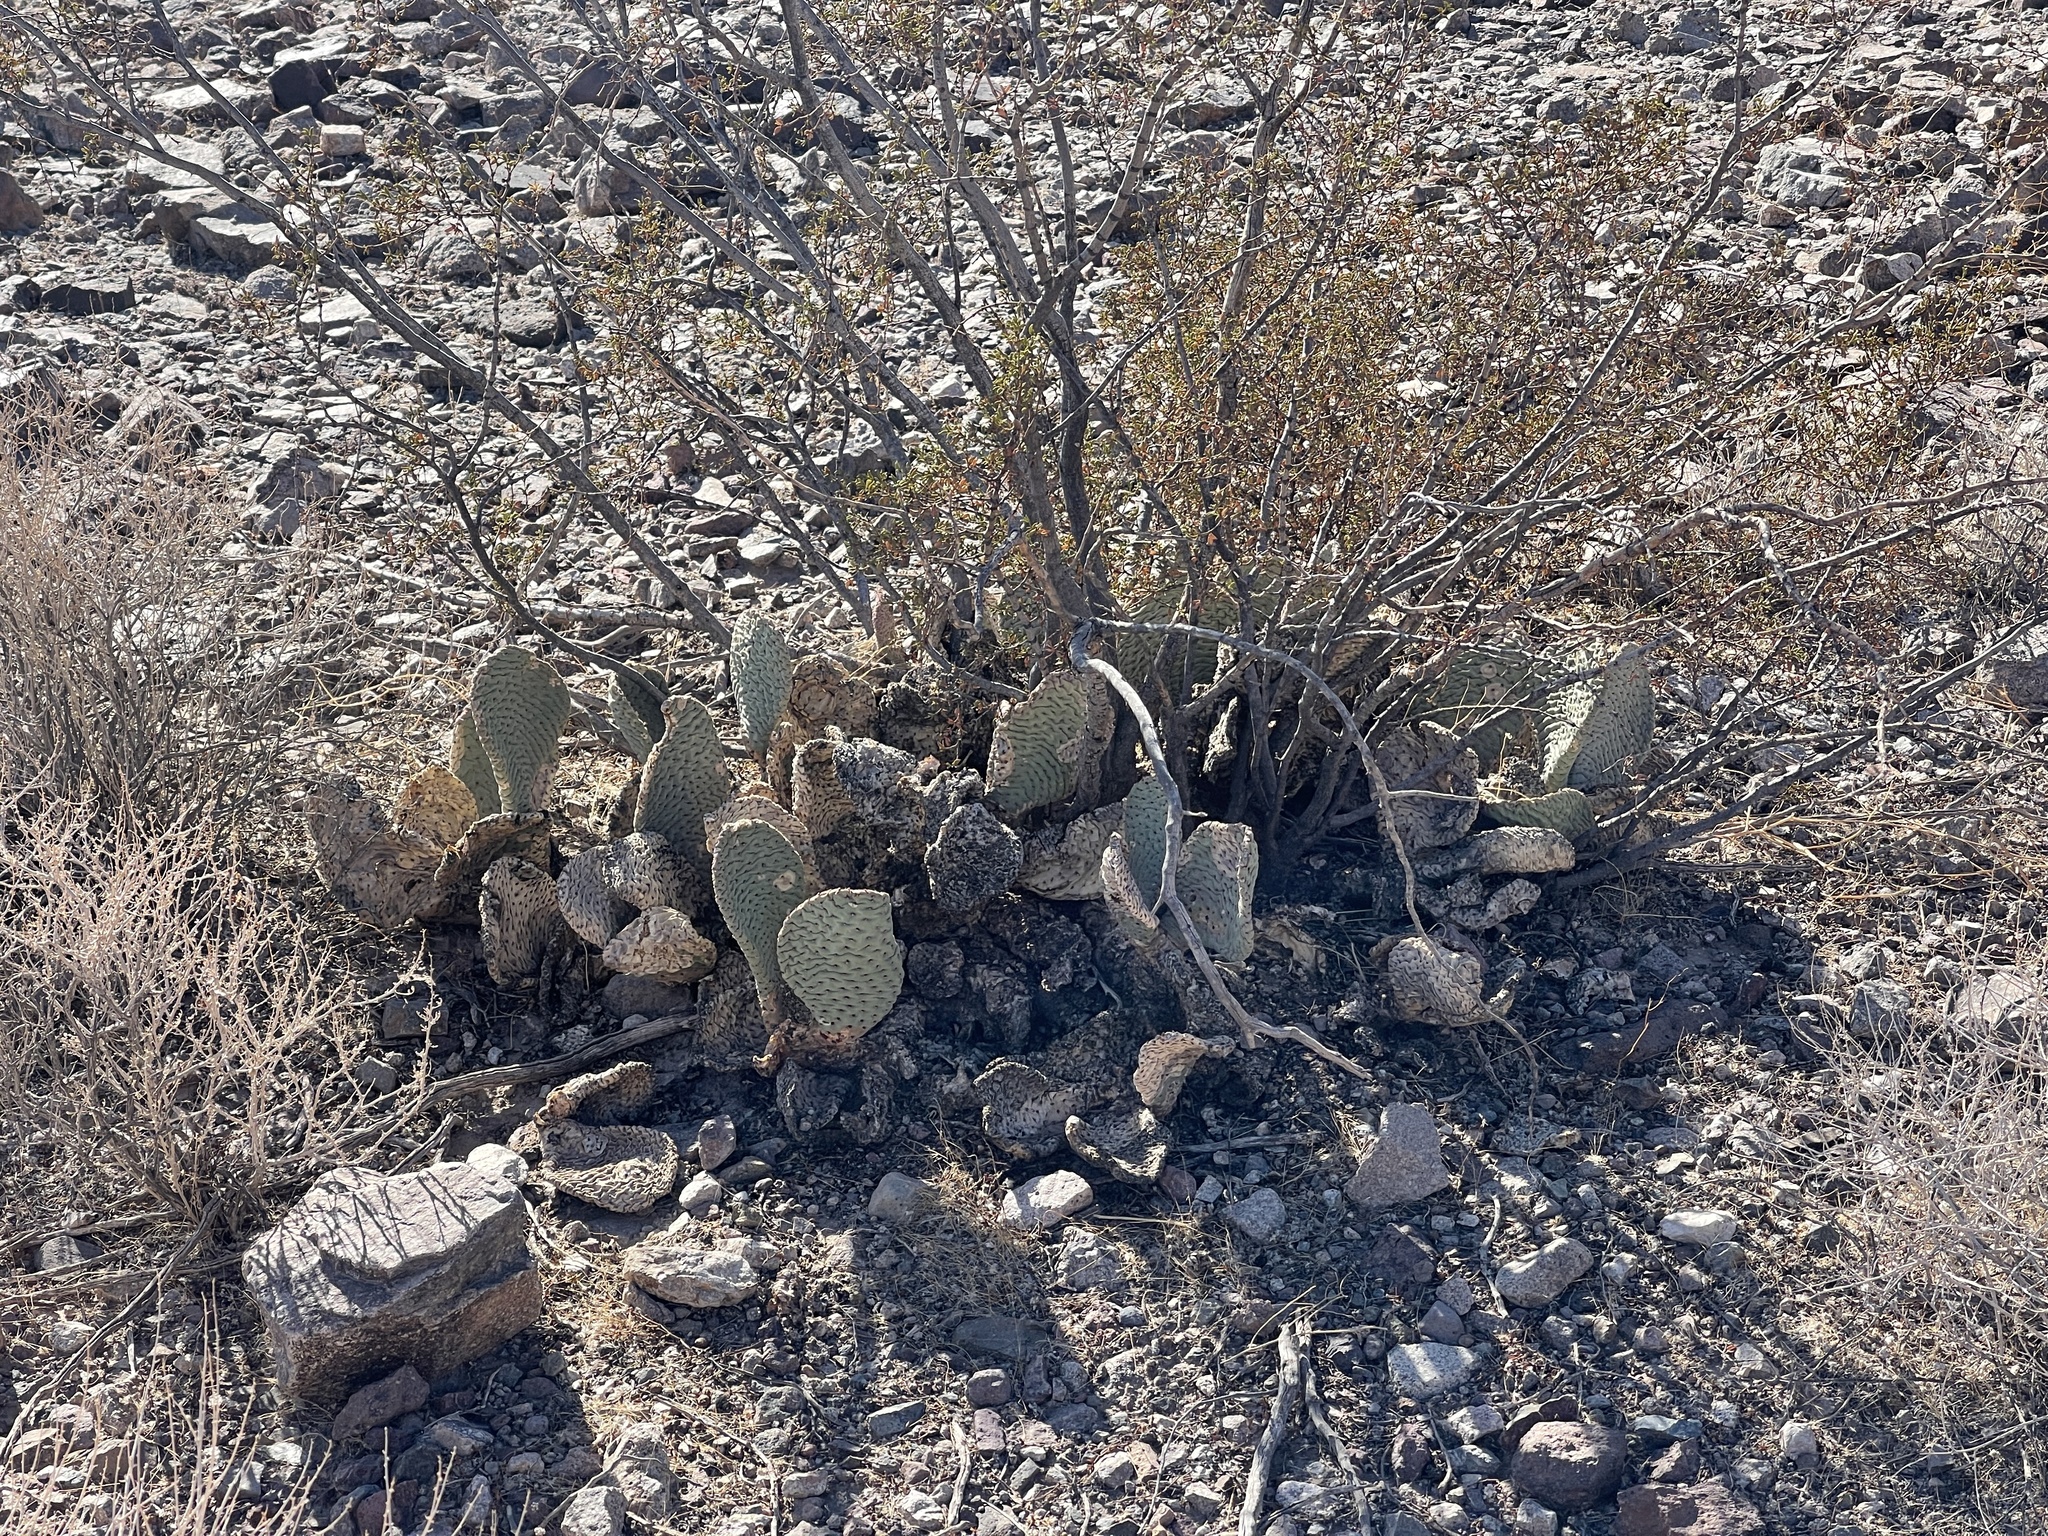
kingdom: Plantae
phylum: Tracheophyta
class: Magnoliopsida
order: Caryophyllales
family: Cactaceae
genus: Opuntia
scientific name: Opuntia basilaris
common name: Beavertail prickly-pear
